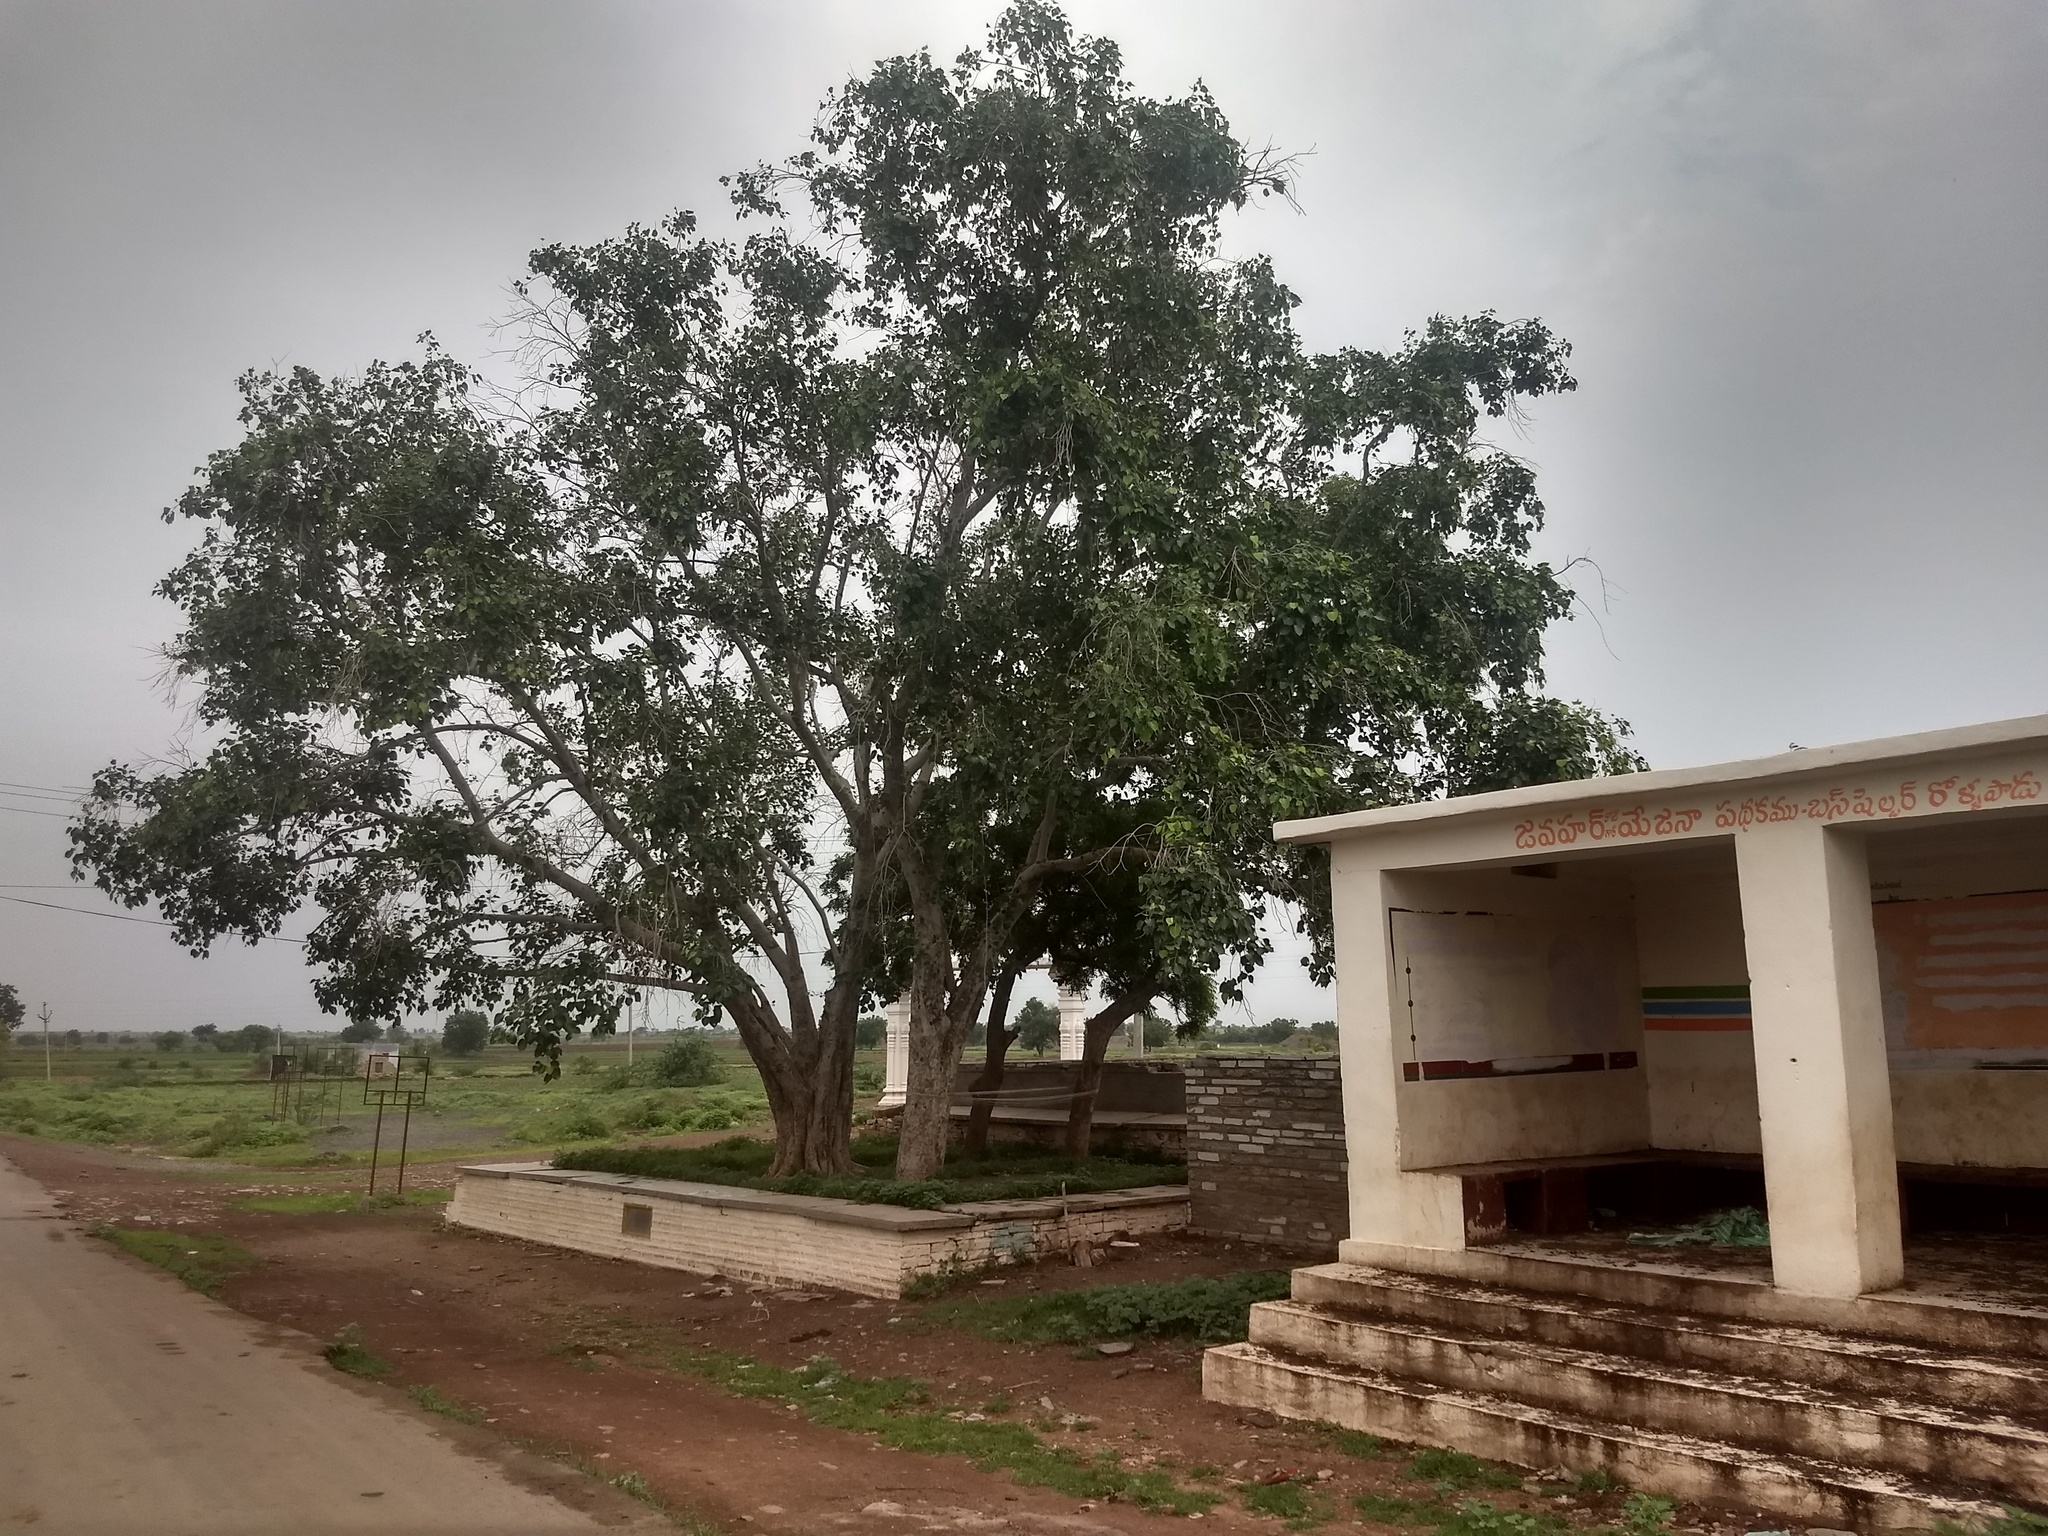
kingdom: Plantae
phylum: Tracheophyta
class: Magnoliopsida
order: Rosales
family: Moraceae
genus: Ficus
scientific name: Ficus religiosa
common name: Bodhi tree
